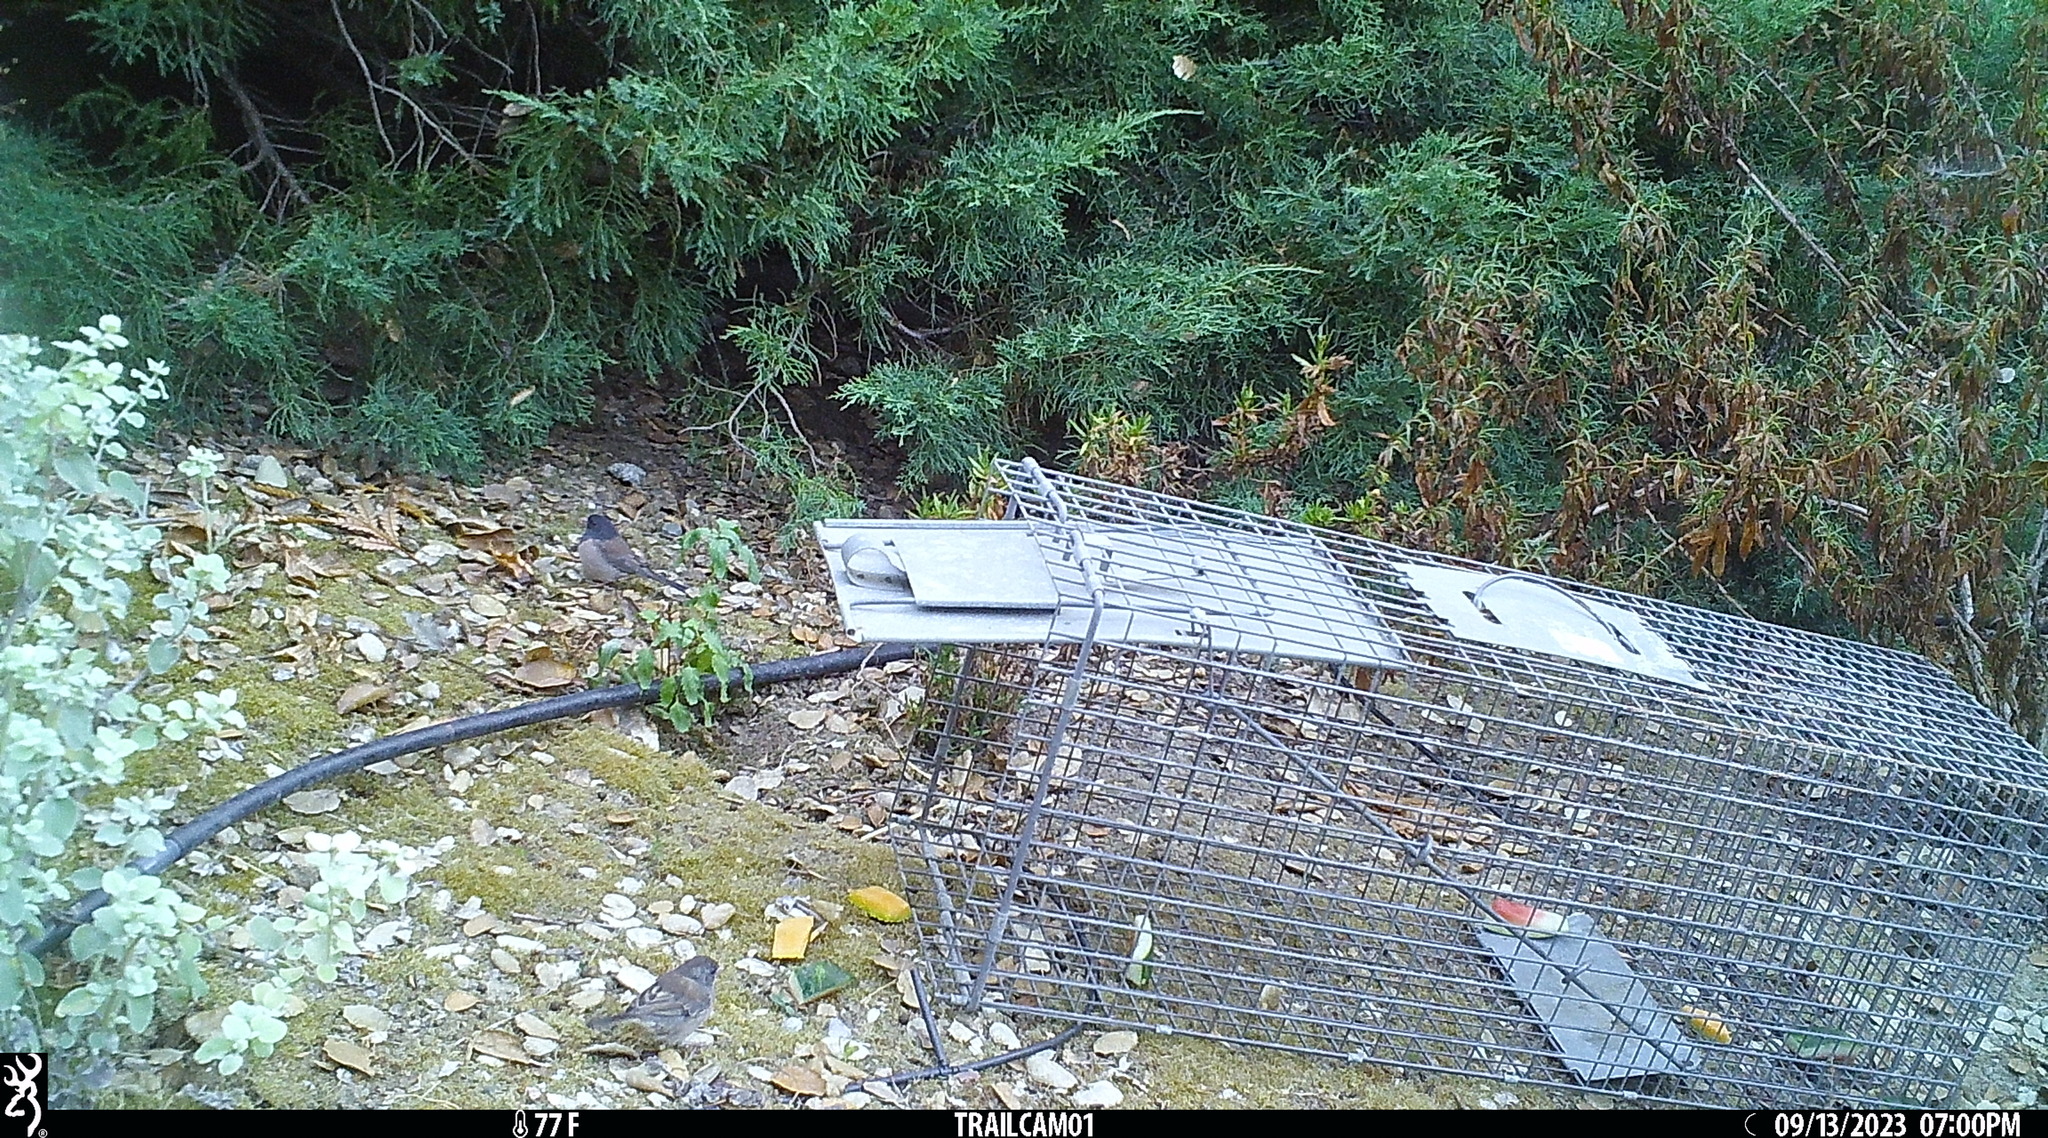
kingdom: Animalia
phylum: Chordata
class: Aves
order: Passeriformes
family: Passerellidae
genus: Junco
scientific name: Junco hyemalis
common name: Dark-eyed junco
